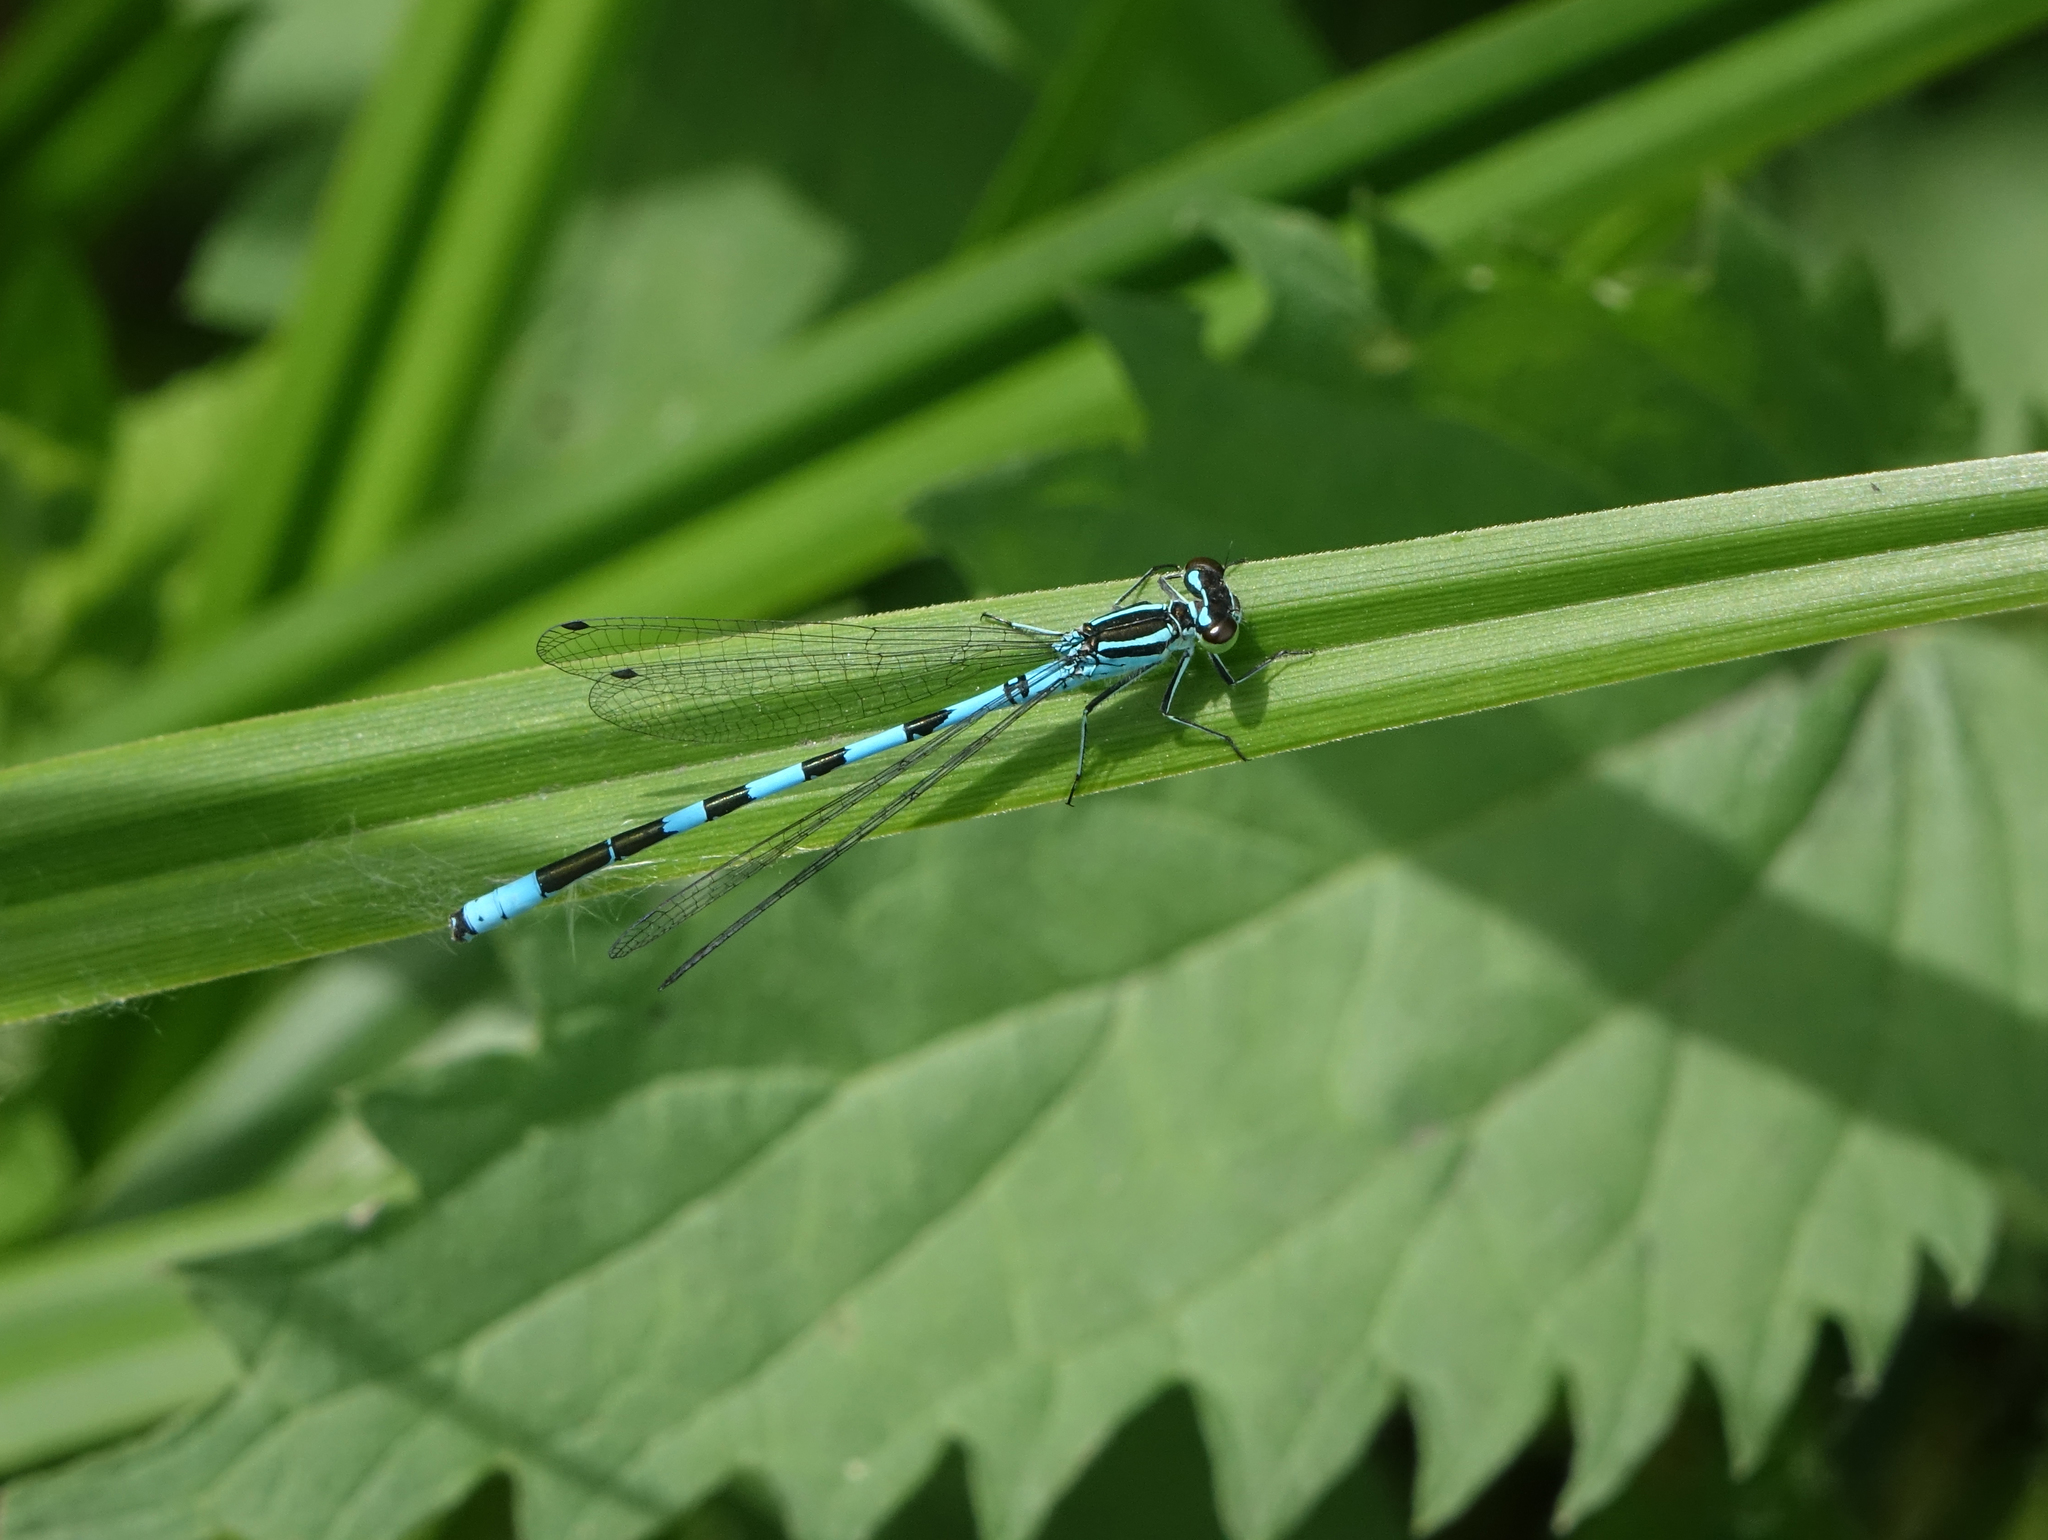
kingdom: Animalia
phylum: Arthropoda
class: Insecta
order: Odonata
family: Coenagrionidae
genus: Coenagrion
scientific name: Coenagrion hastulatum
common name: Spearhead bluet
